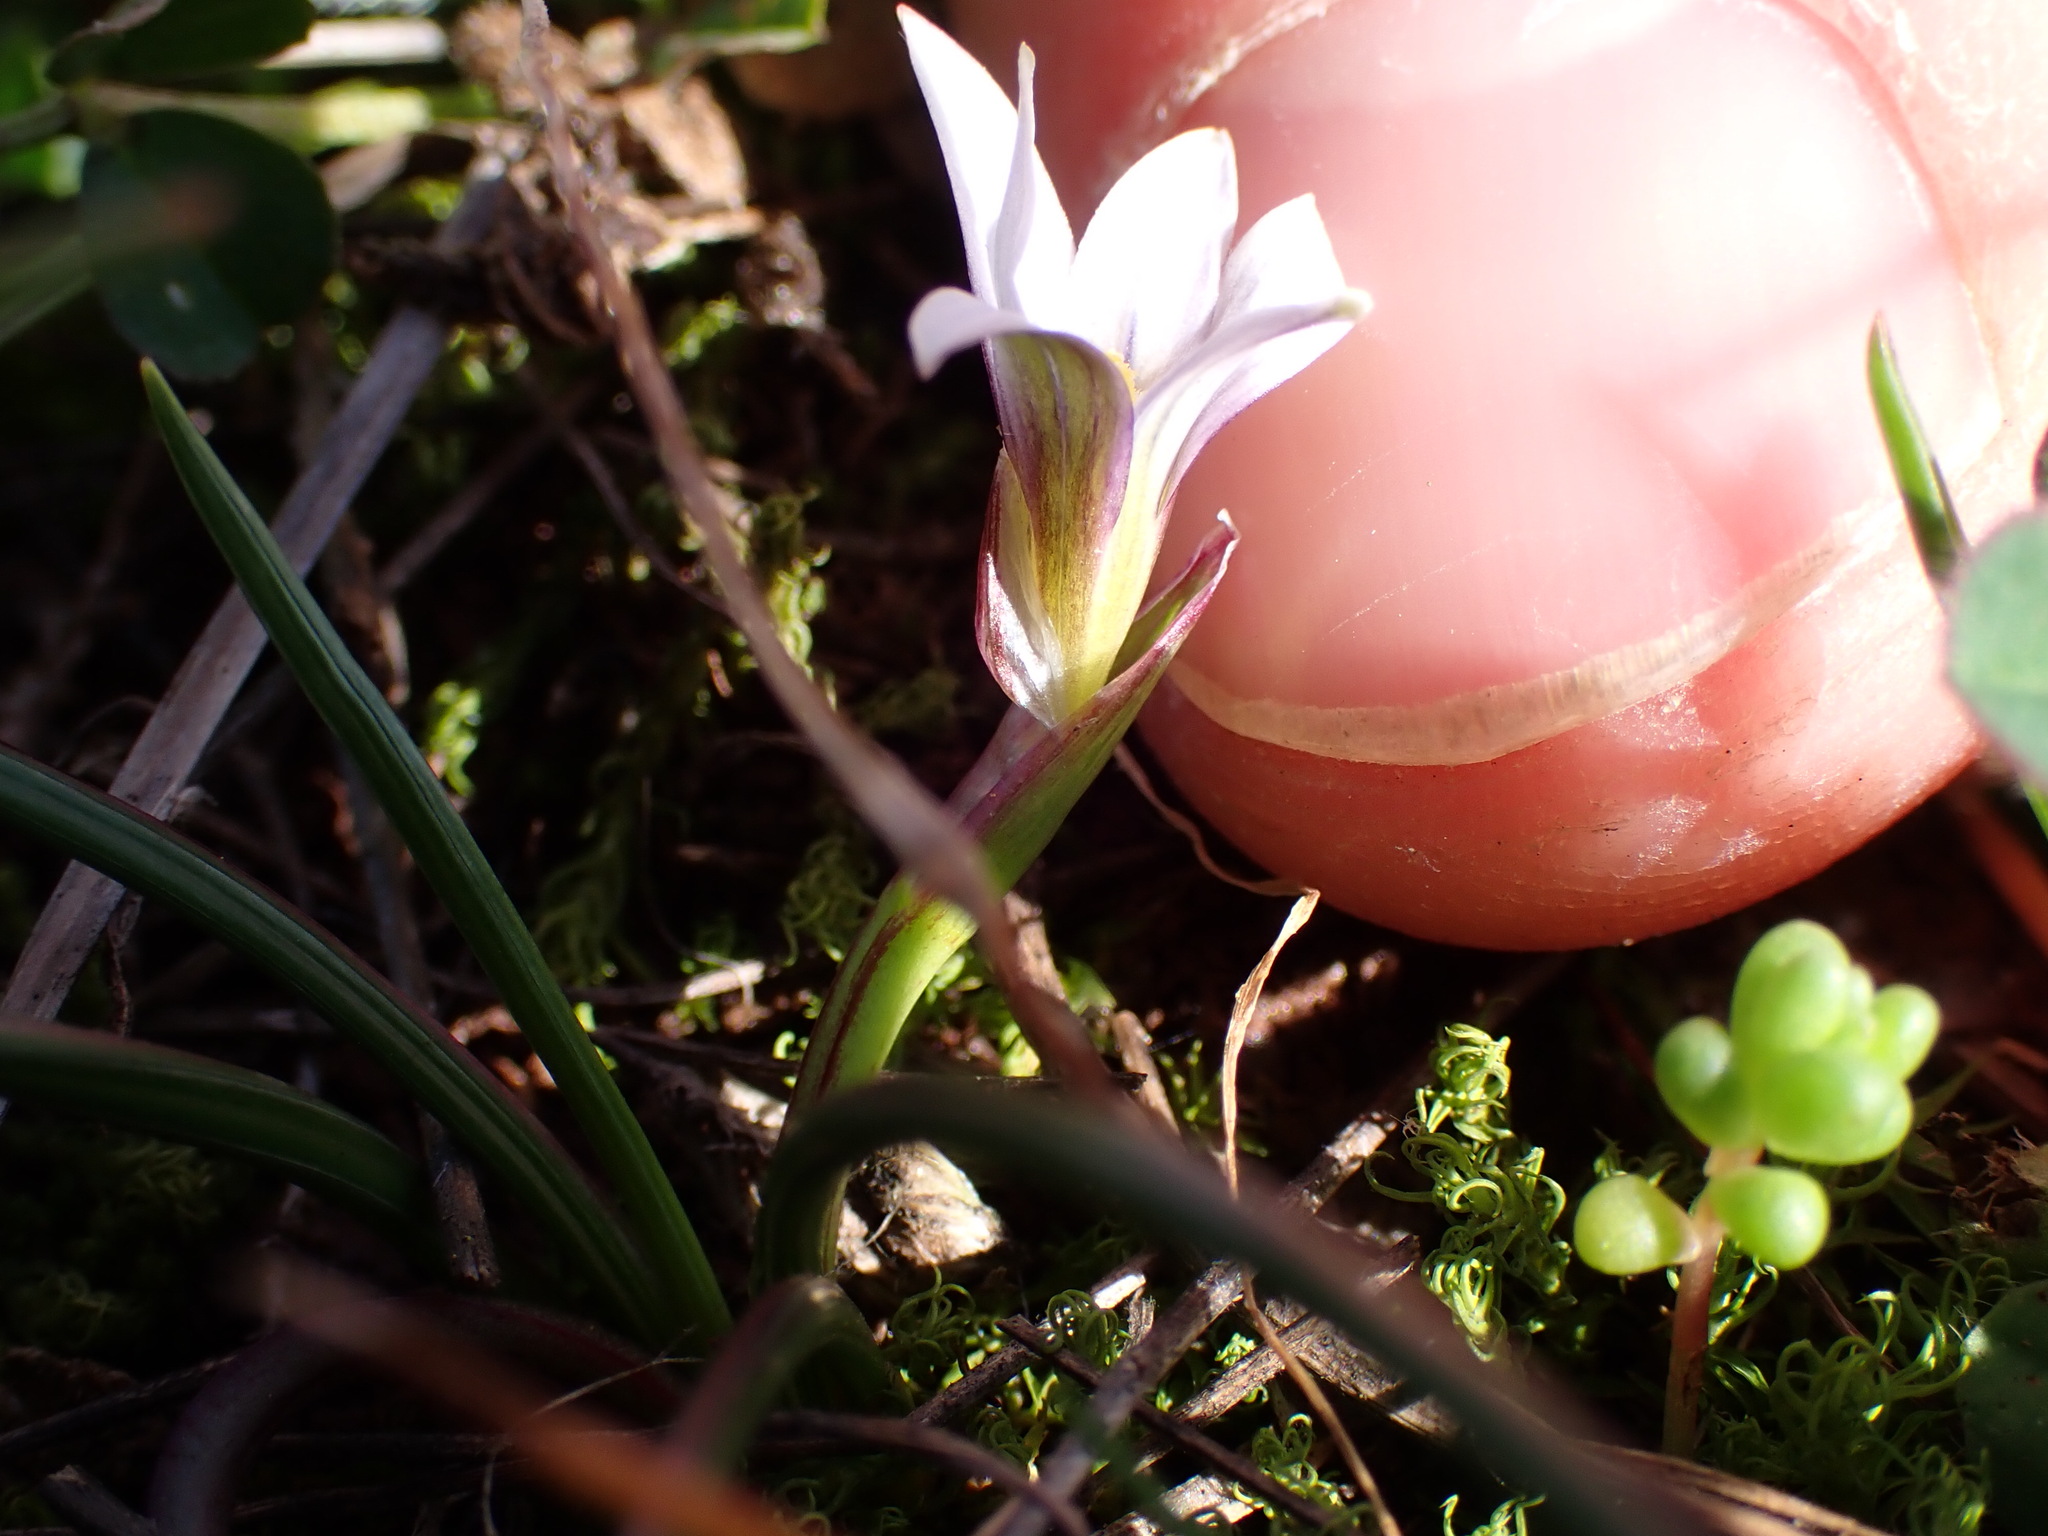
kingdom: Plantae
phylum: Tracheophyta
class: Liliopsida
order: Asparagales
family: Iridaceae
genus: Romulea
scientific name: Romulea columnae
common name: Sand-crocus
